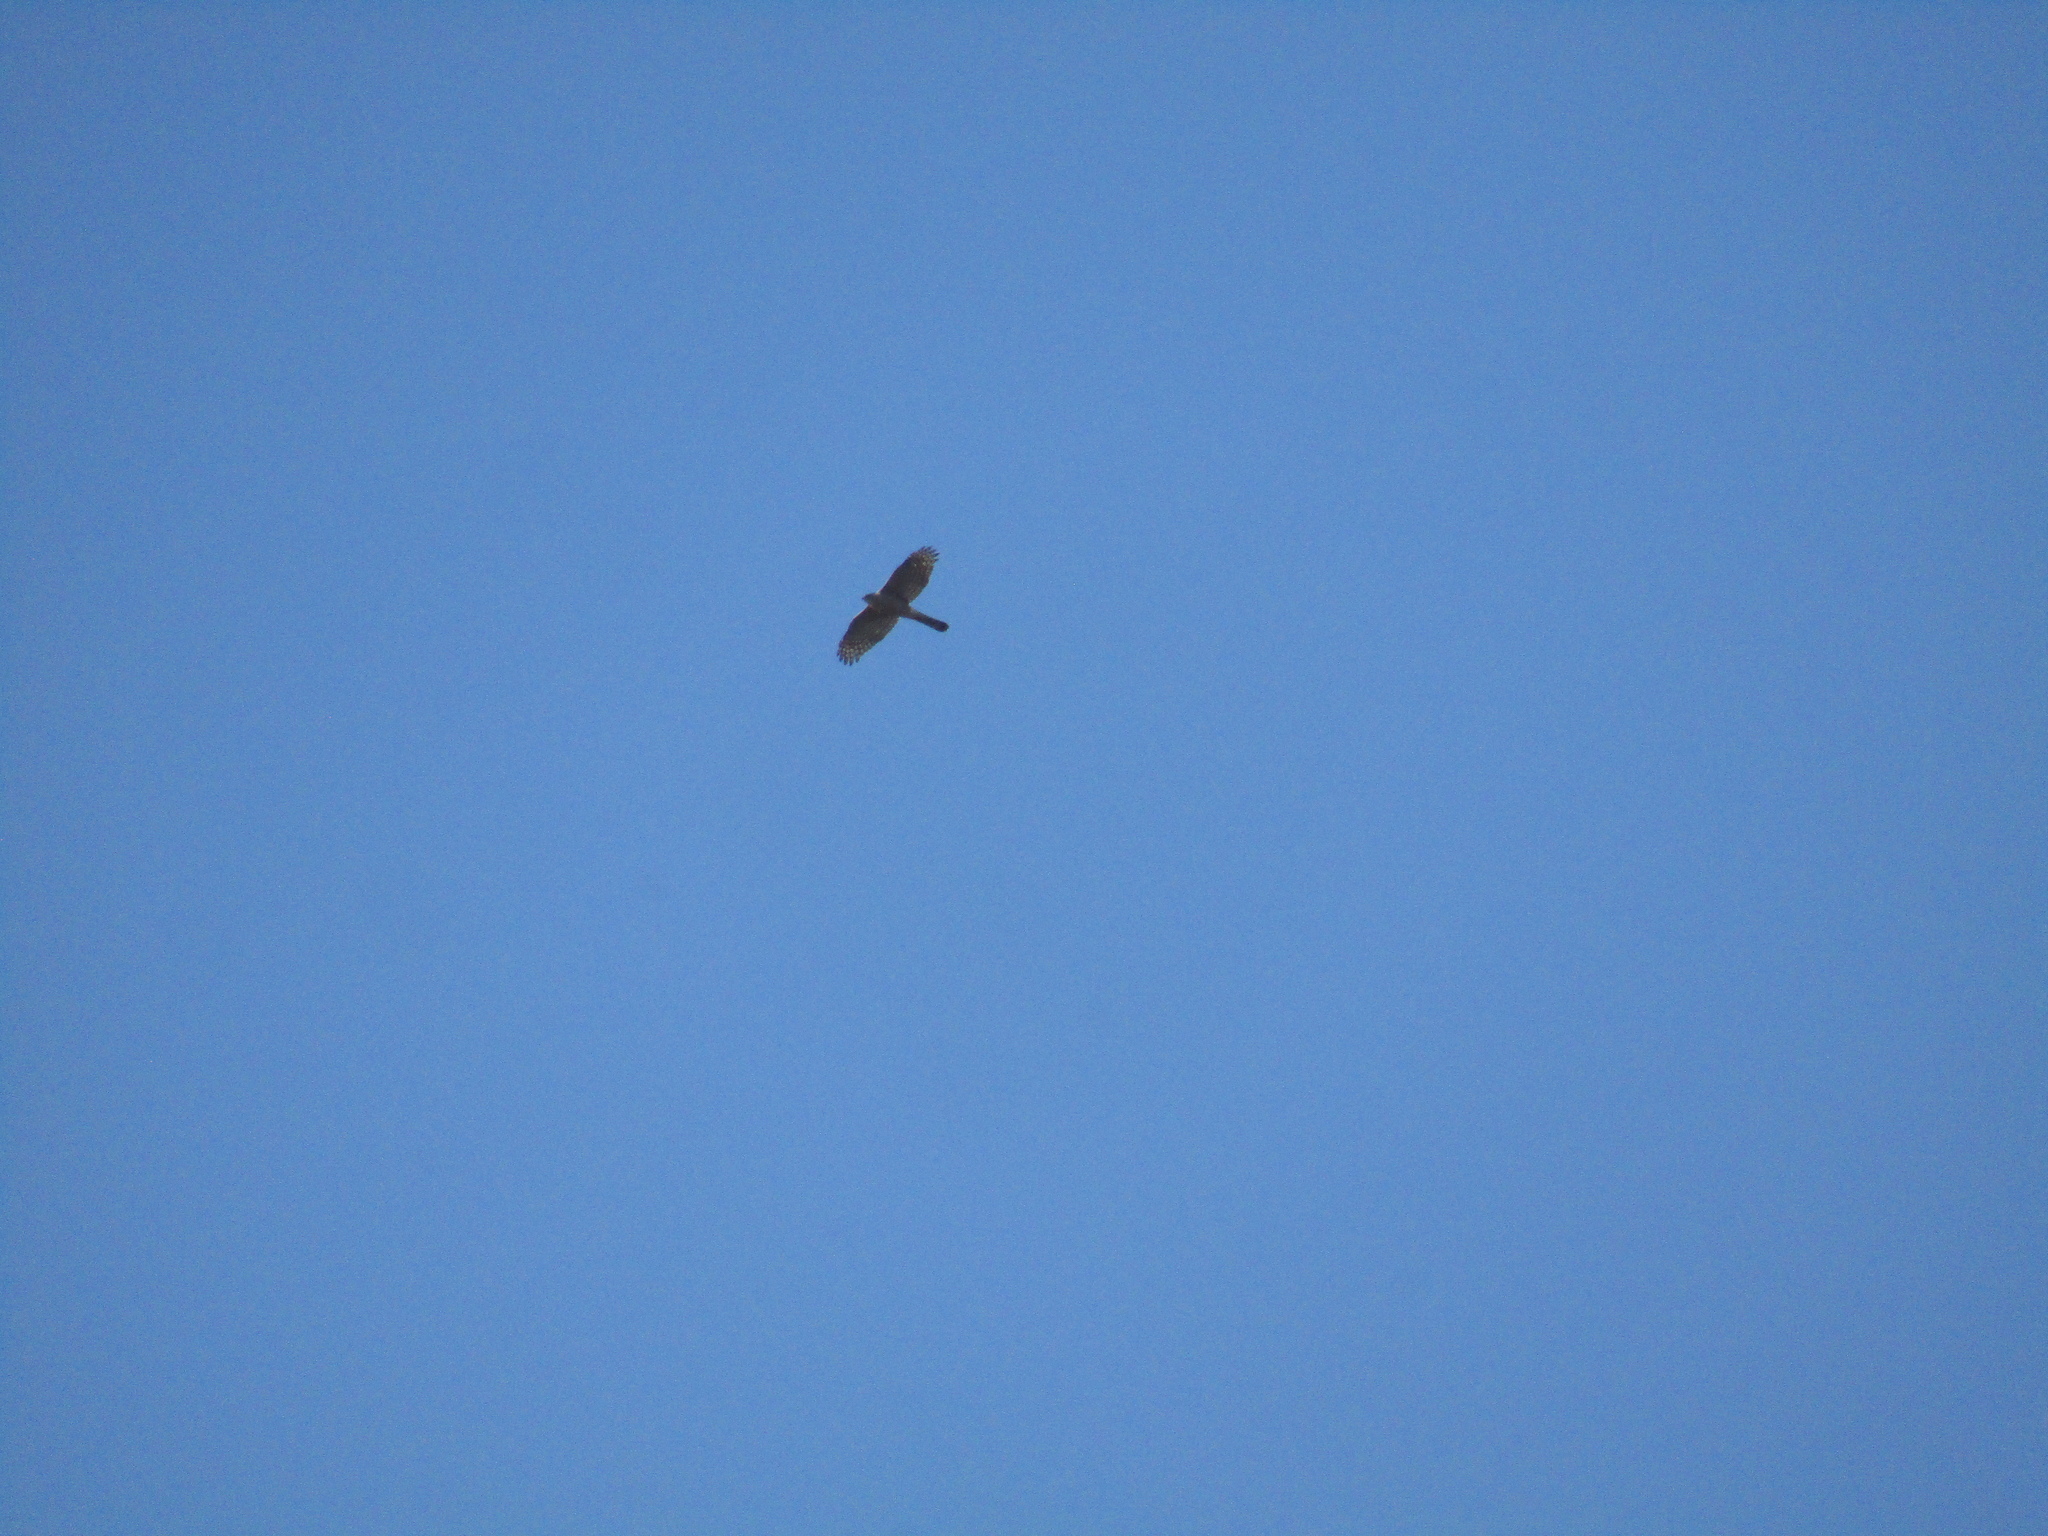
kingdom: Animalia
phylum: Chordata
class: Aves
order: Accipitriformes
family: Accipitridae
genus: Accipiter
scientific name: Accipiter cooperii
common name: Cooper's hawk
